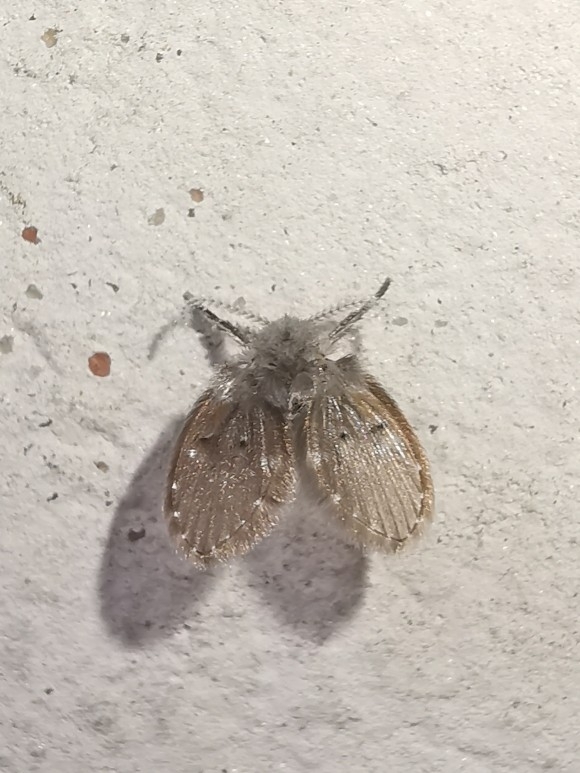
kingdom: Animalia
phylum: Arthropoda
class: Insecta
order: Diptera
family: Psychodidae
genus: Clogmia
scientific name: Clogmia albipunctatus
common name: White-spotted moth fly
